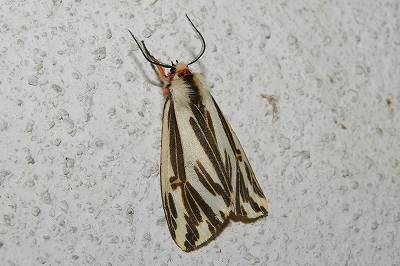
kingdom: Animalia
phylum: Arthropoda
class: Insecta
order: Lepidoptera
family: Erebidae
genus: Eospilarctia
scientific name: Eospilarctia lewisii
